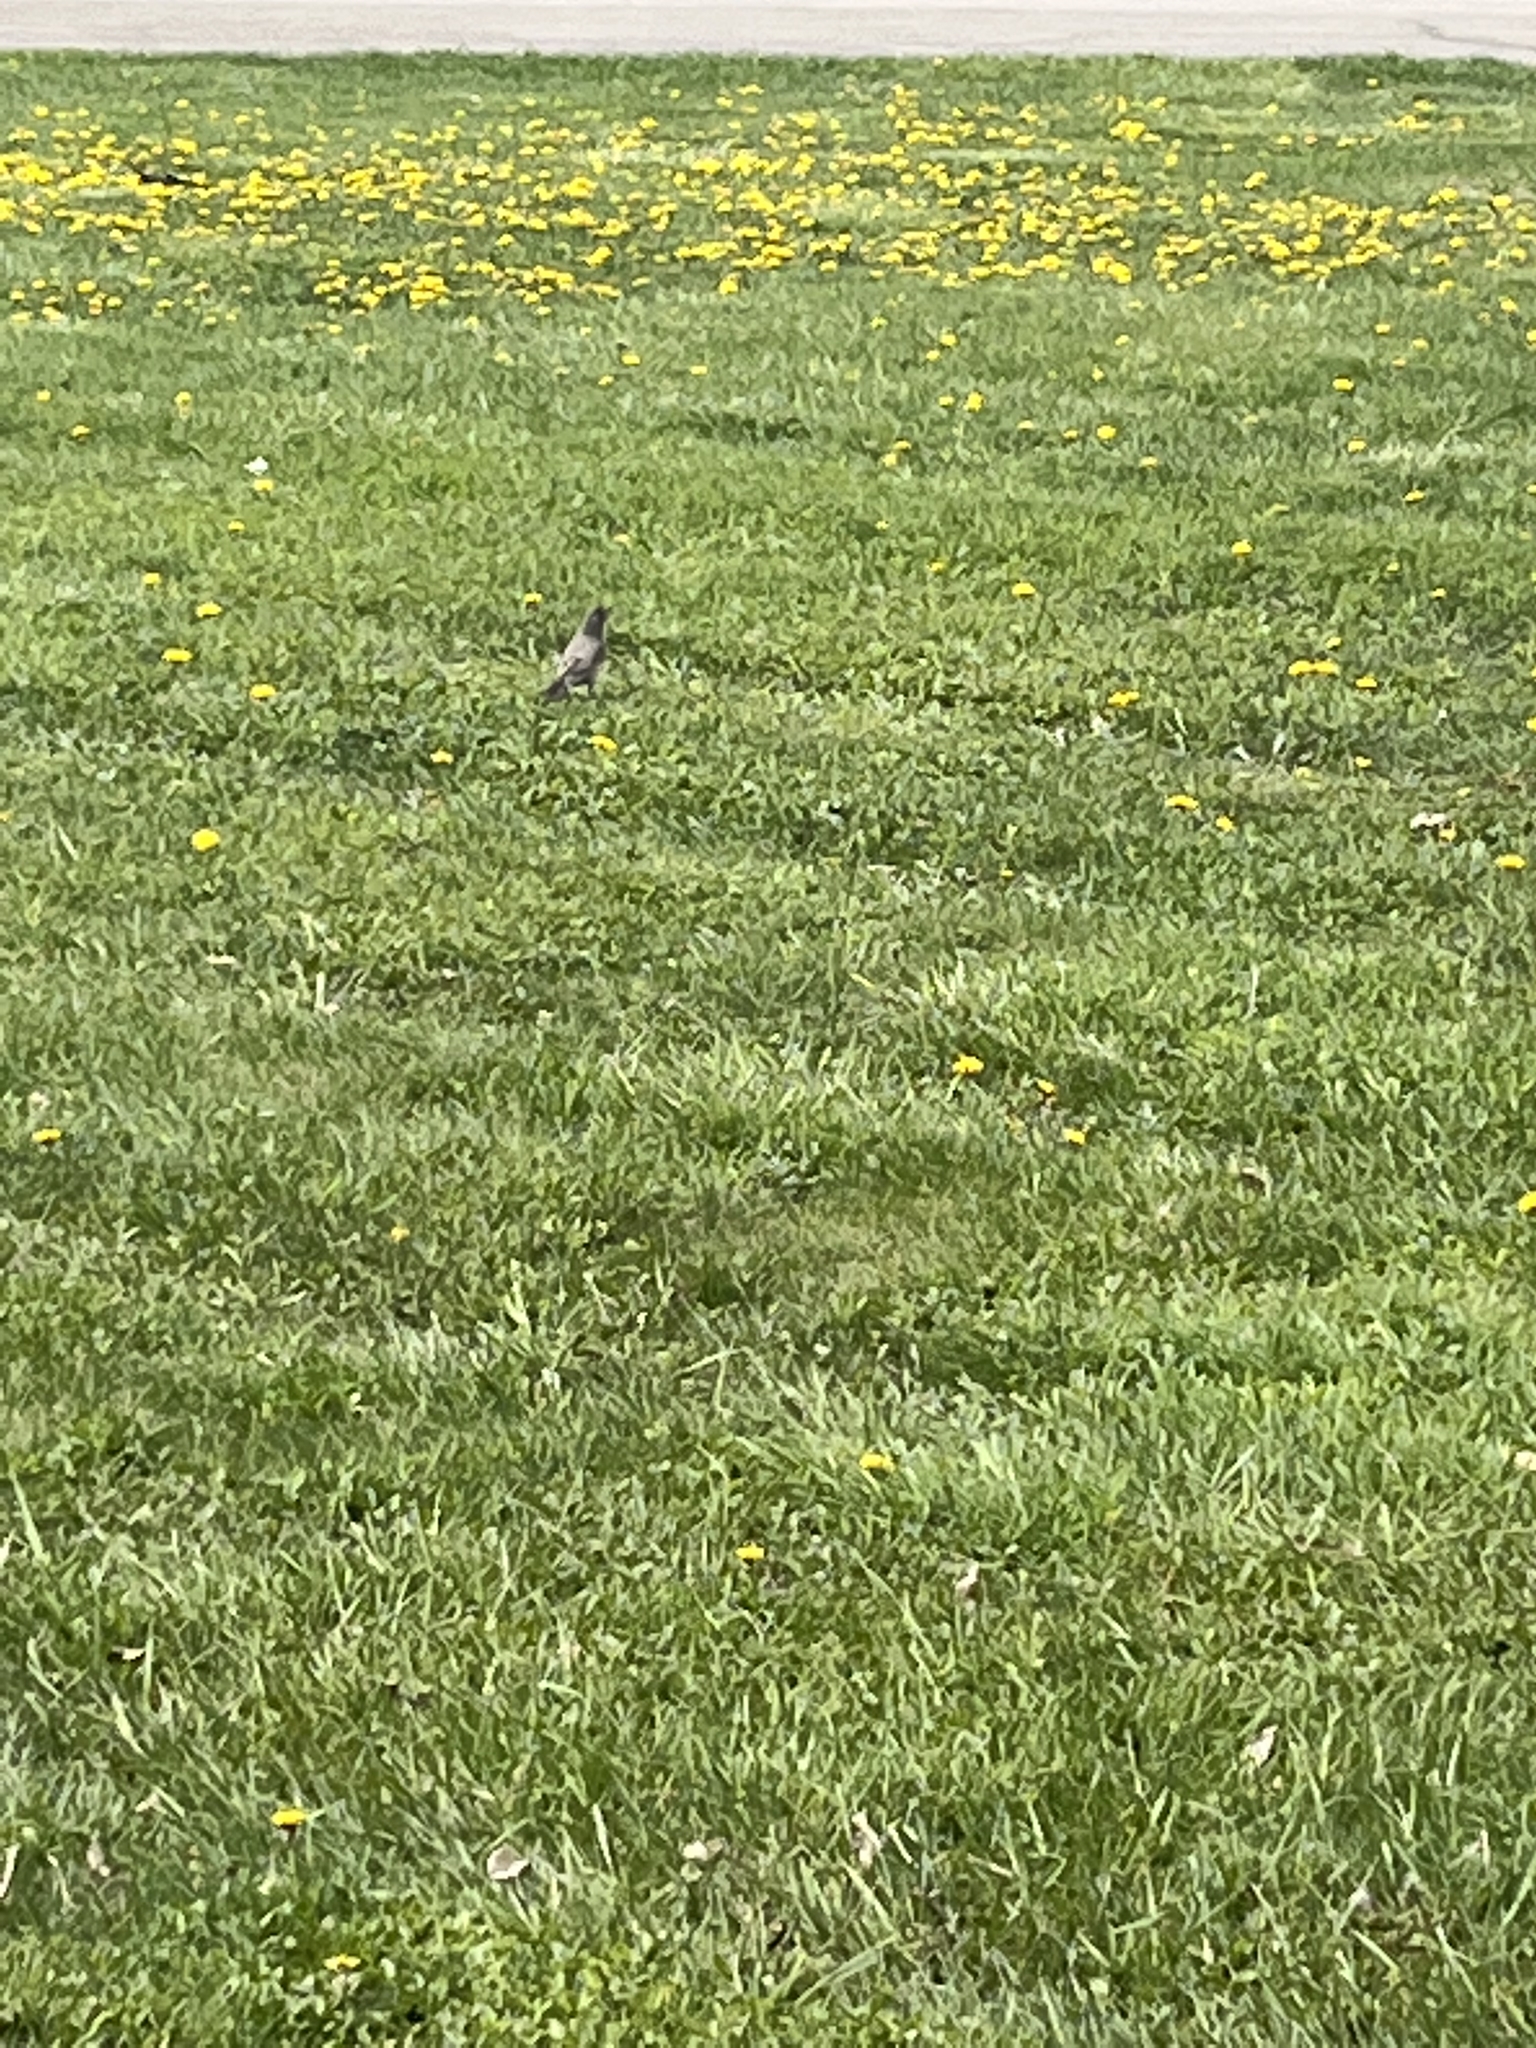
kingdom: Animalia
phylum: Chordata
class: Aves
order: Passeriformes
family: Turdidae
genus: Turdus
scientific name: Turdus migratorius
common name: American robin
